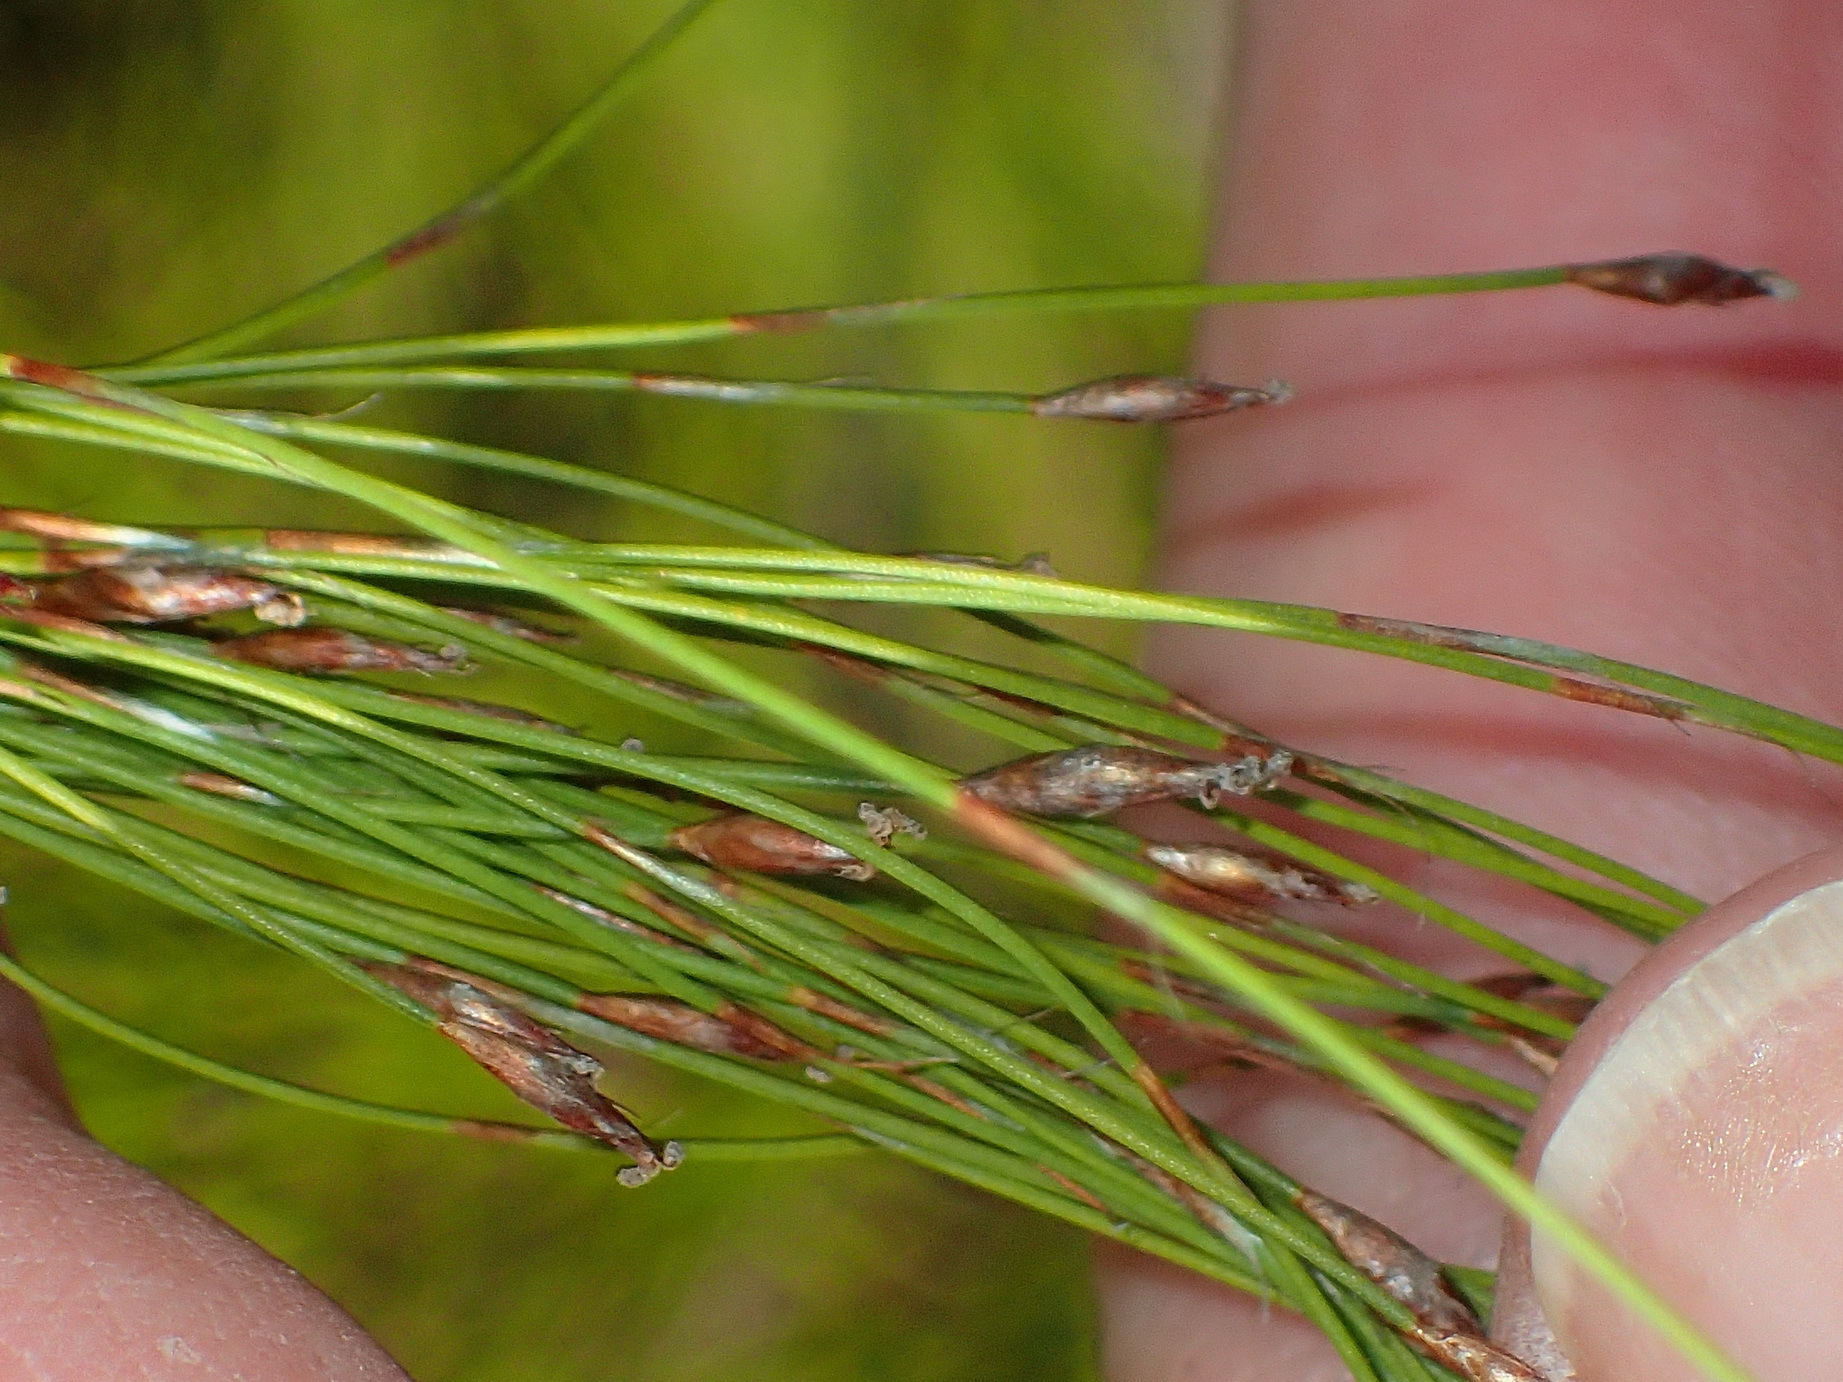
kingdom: Plantae
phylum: Tracheophyta
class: Liliopsida
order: Poales
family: Restionaceae
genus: Restio
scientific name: Restio leptoclados
